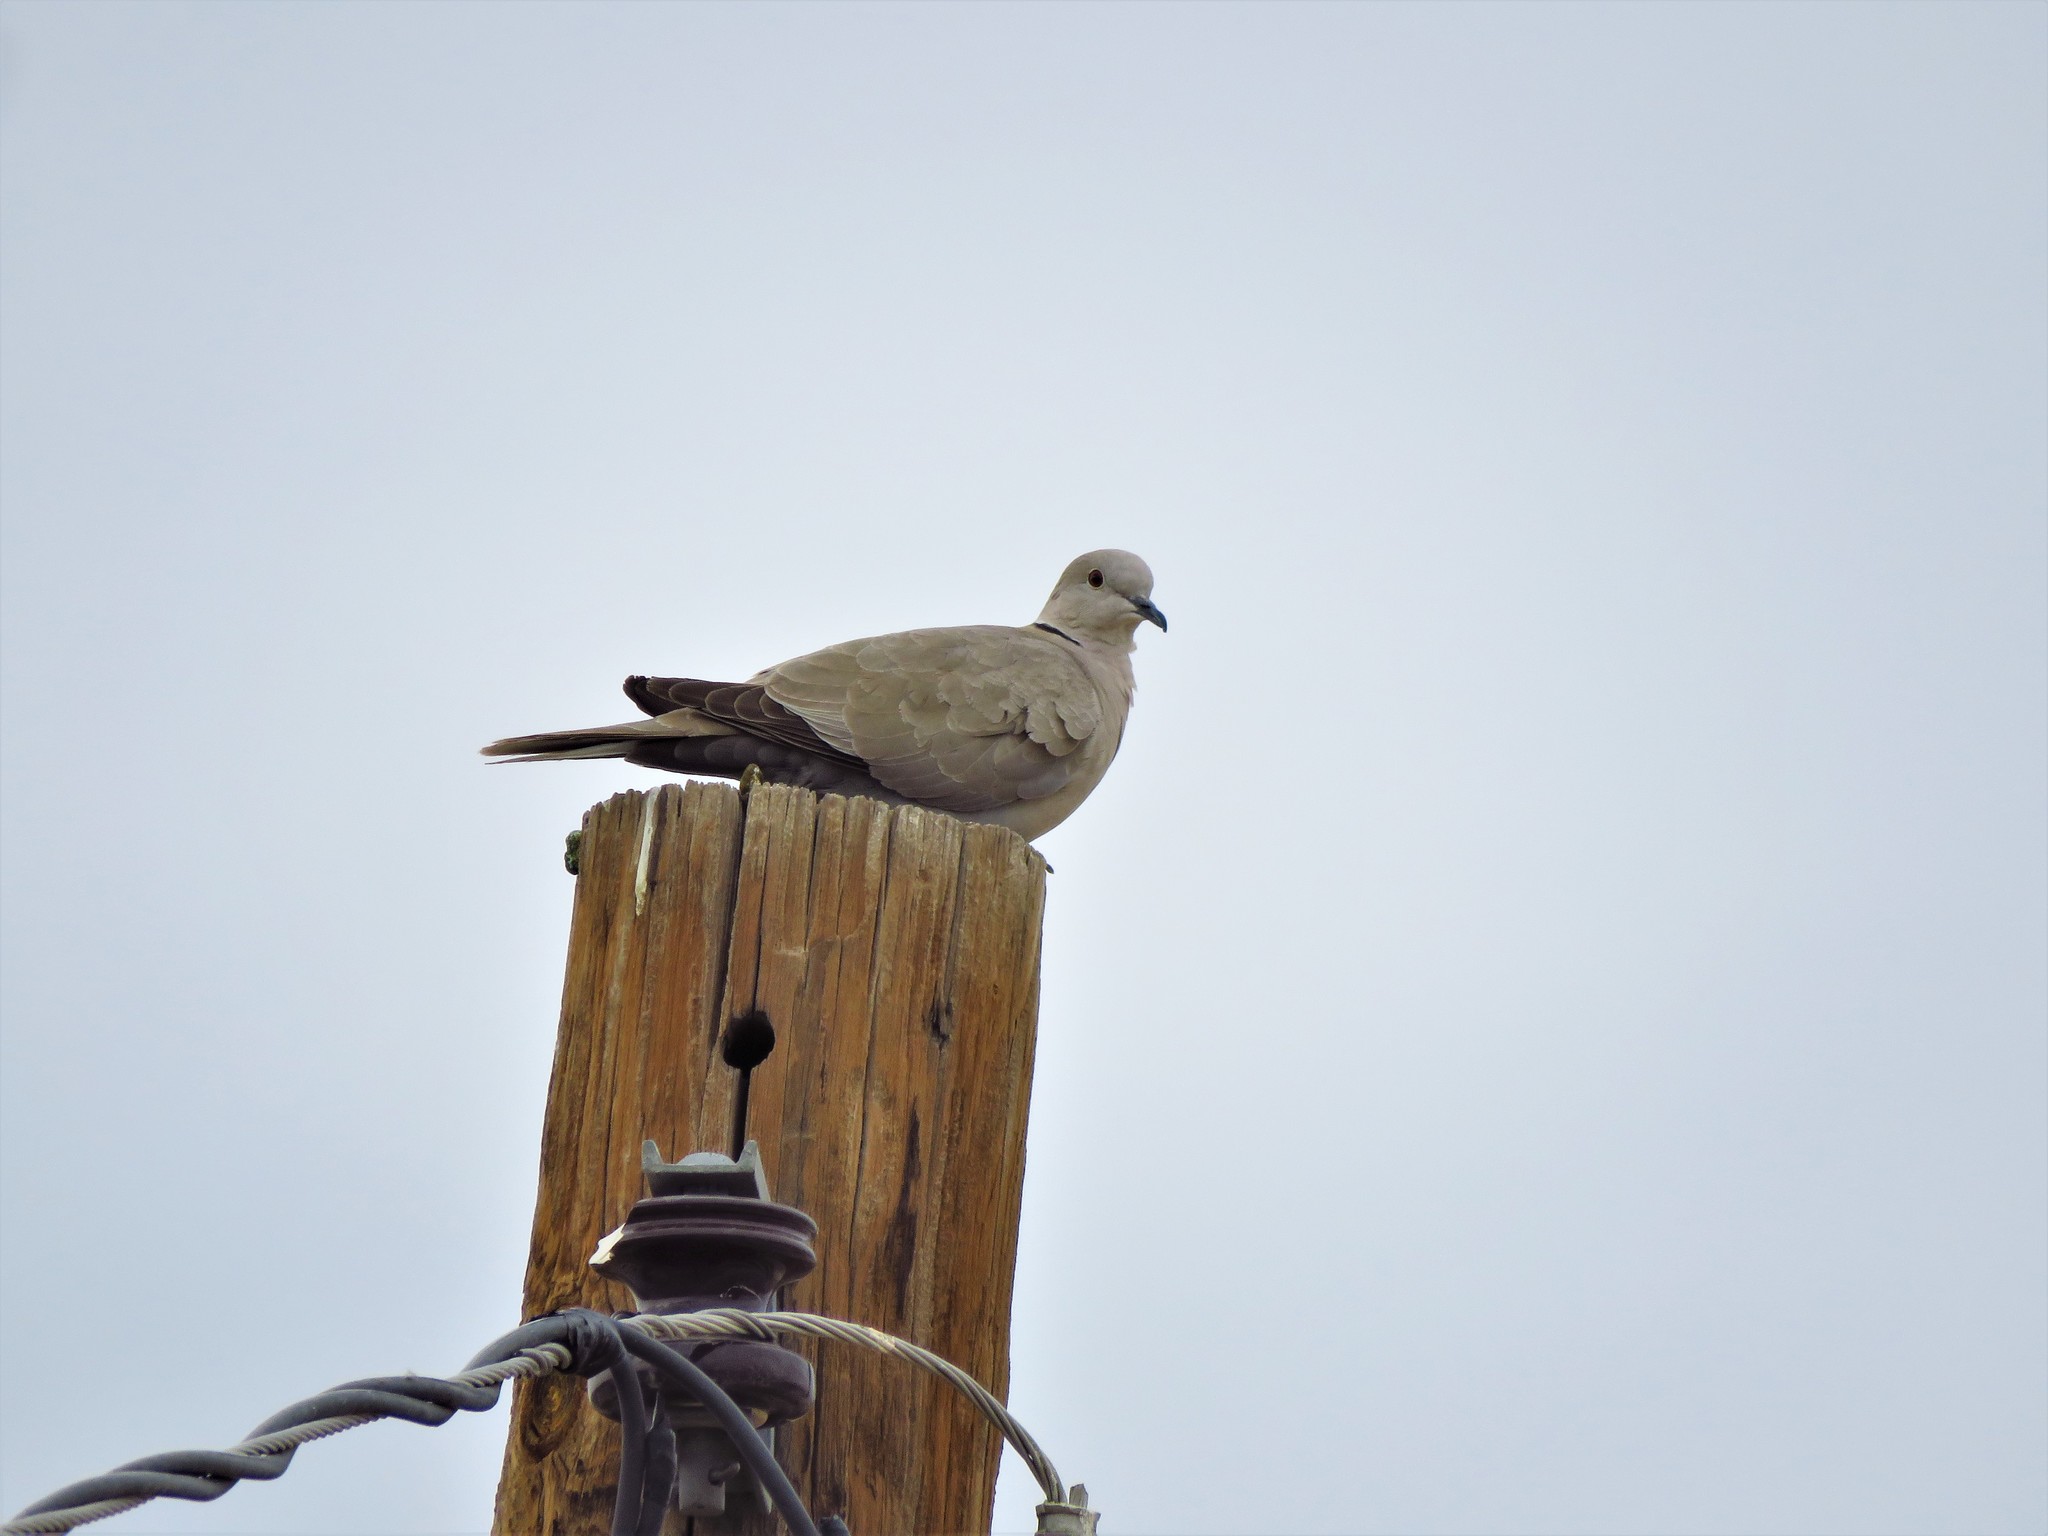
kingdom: Animalia
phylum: Chordata
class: Aves
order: Columbiformes
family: Columbidae
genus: Streptopelia
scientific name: Streptopelia decaocto
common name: Eurasian collared dove
